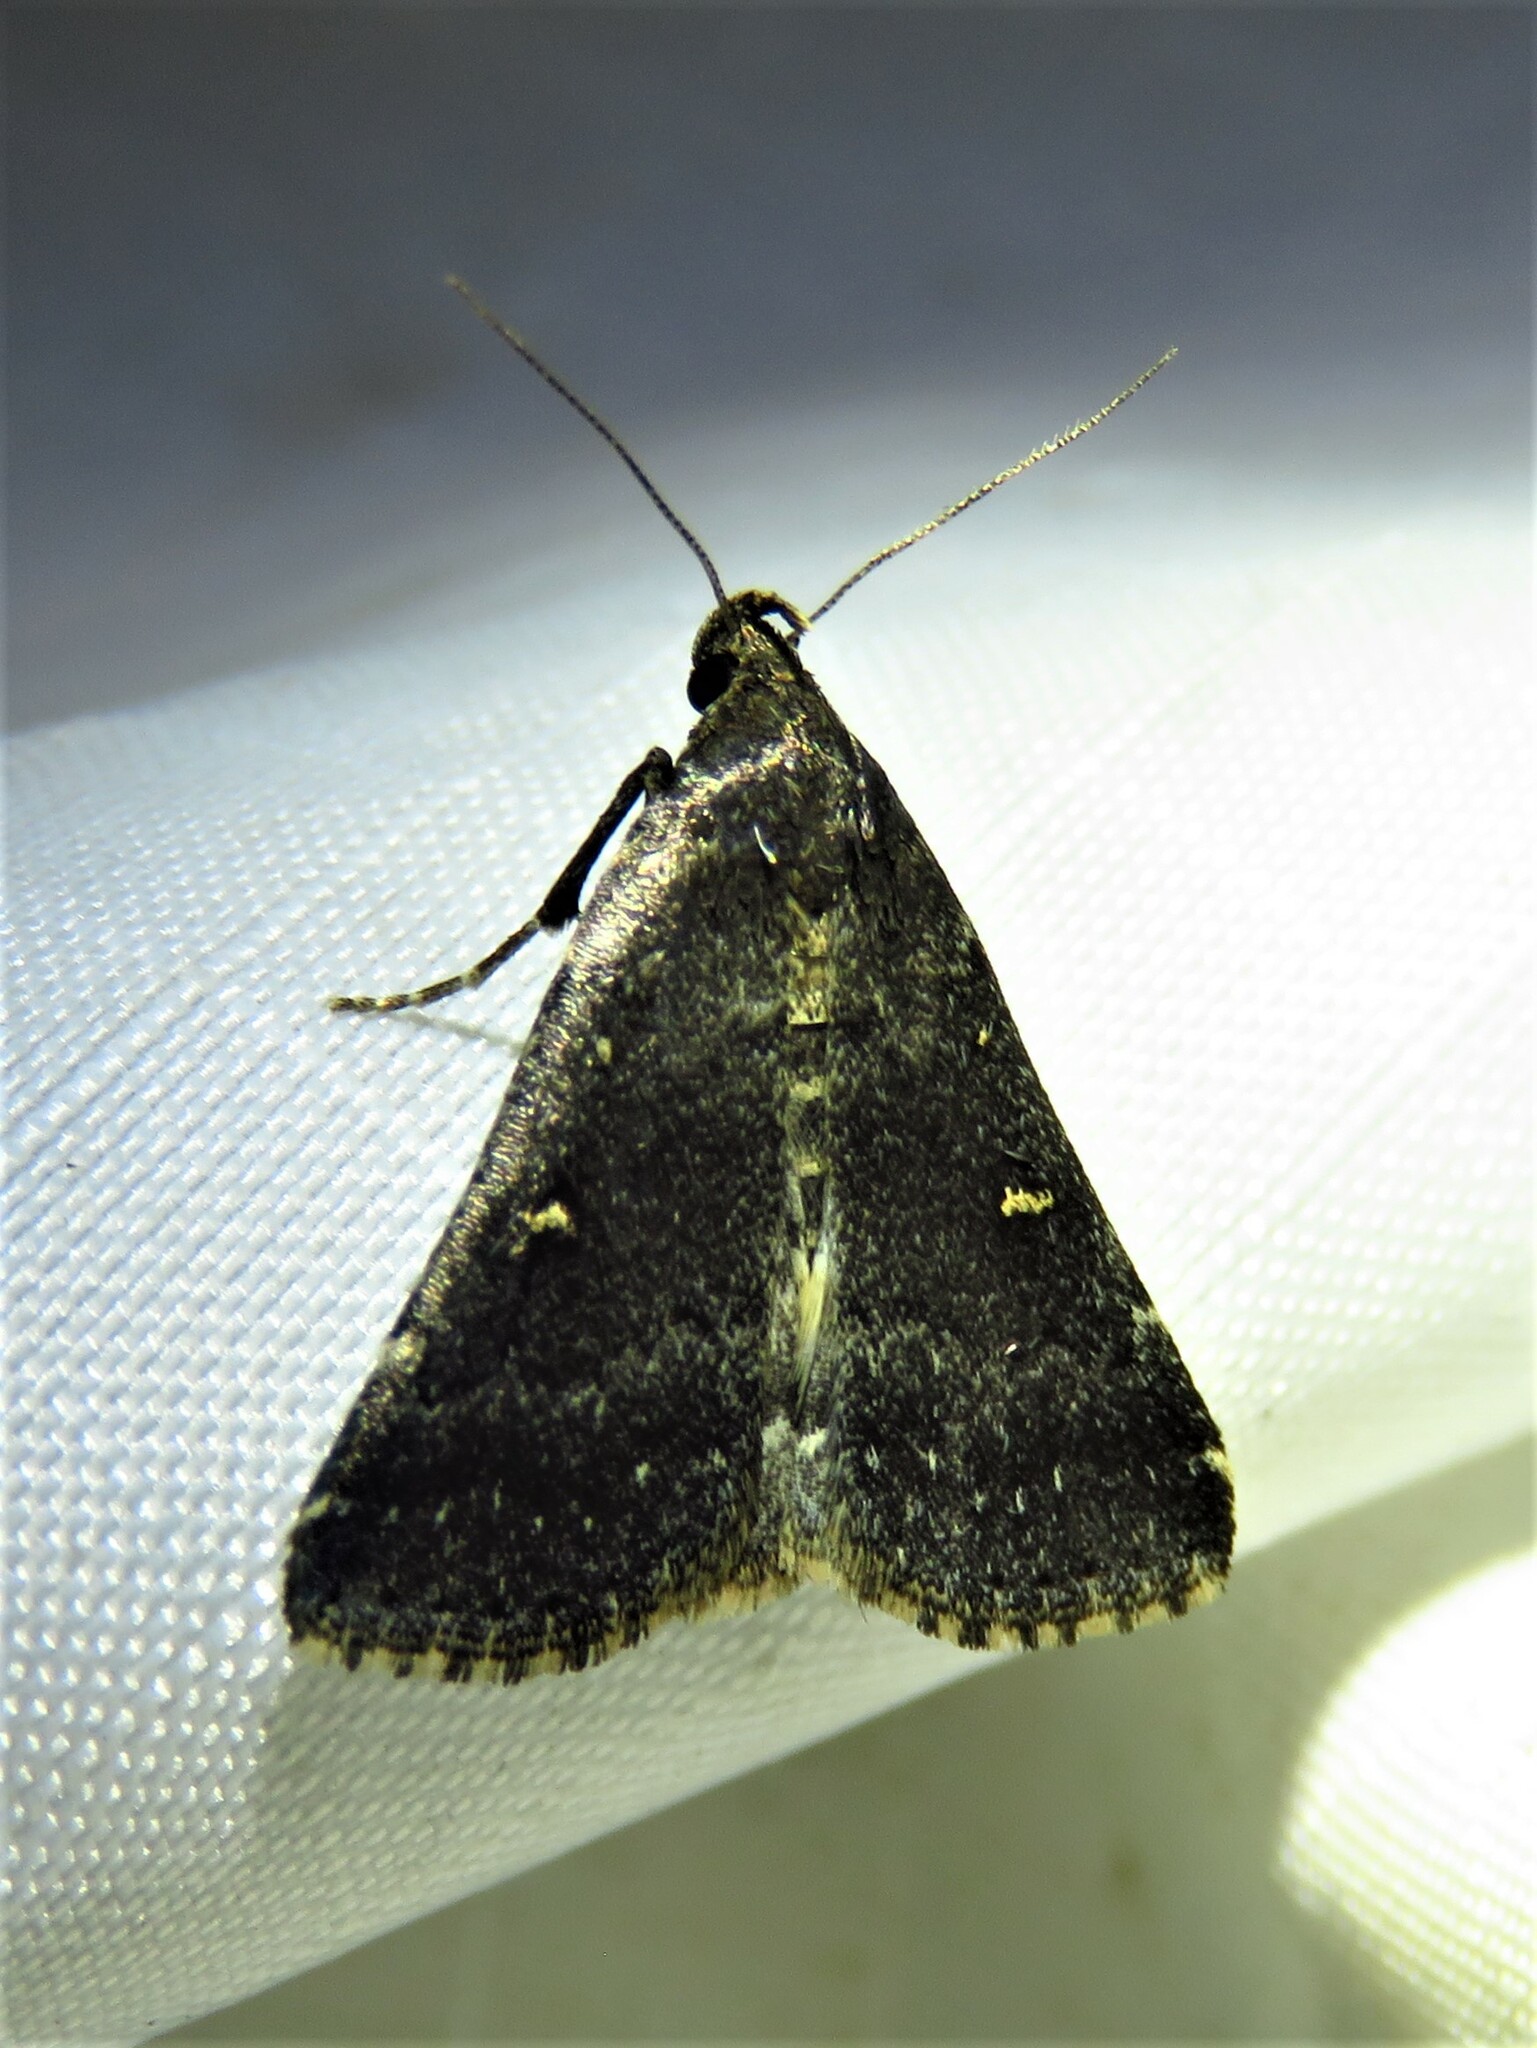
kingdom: Animalia
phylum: Arthropoda
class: Insecta
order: Lepidoptera
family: Erebidae
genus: Tetanolita
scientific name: Tetanolita mynesalis
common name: Smoky tetanolita moth
